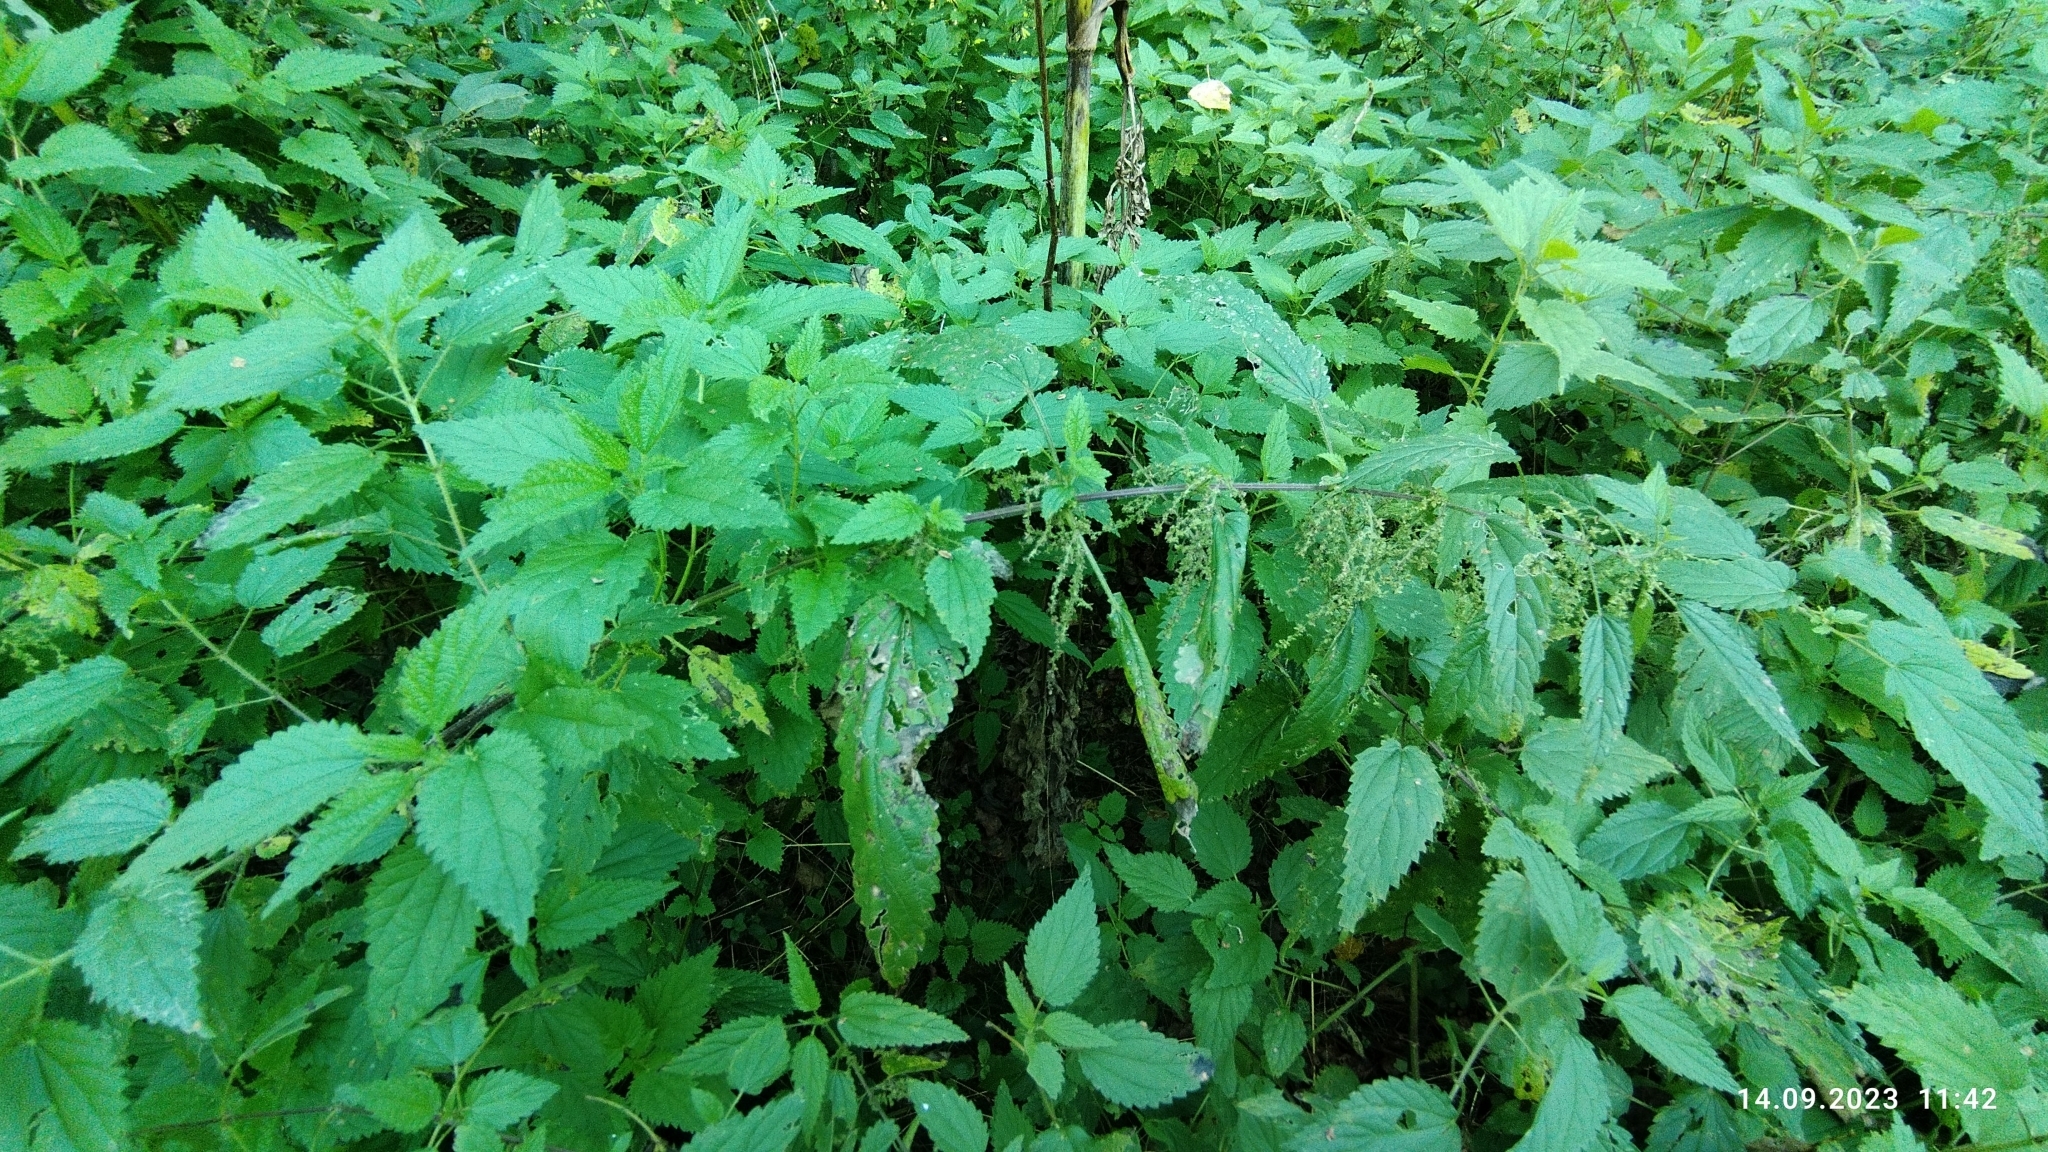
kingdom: Plantae
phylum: Tracheophyta
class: Magnoliopsida
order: Rosales
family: Urticaceae
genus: Urtica
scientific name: Urtica dioica
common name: Common nettle
